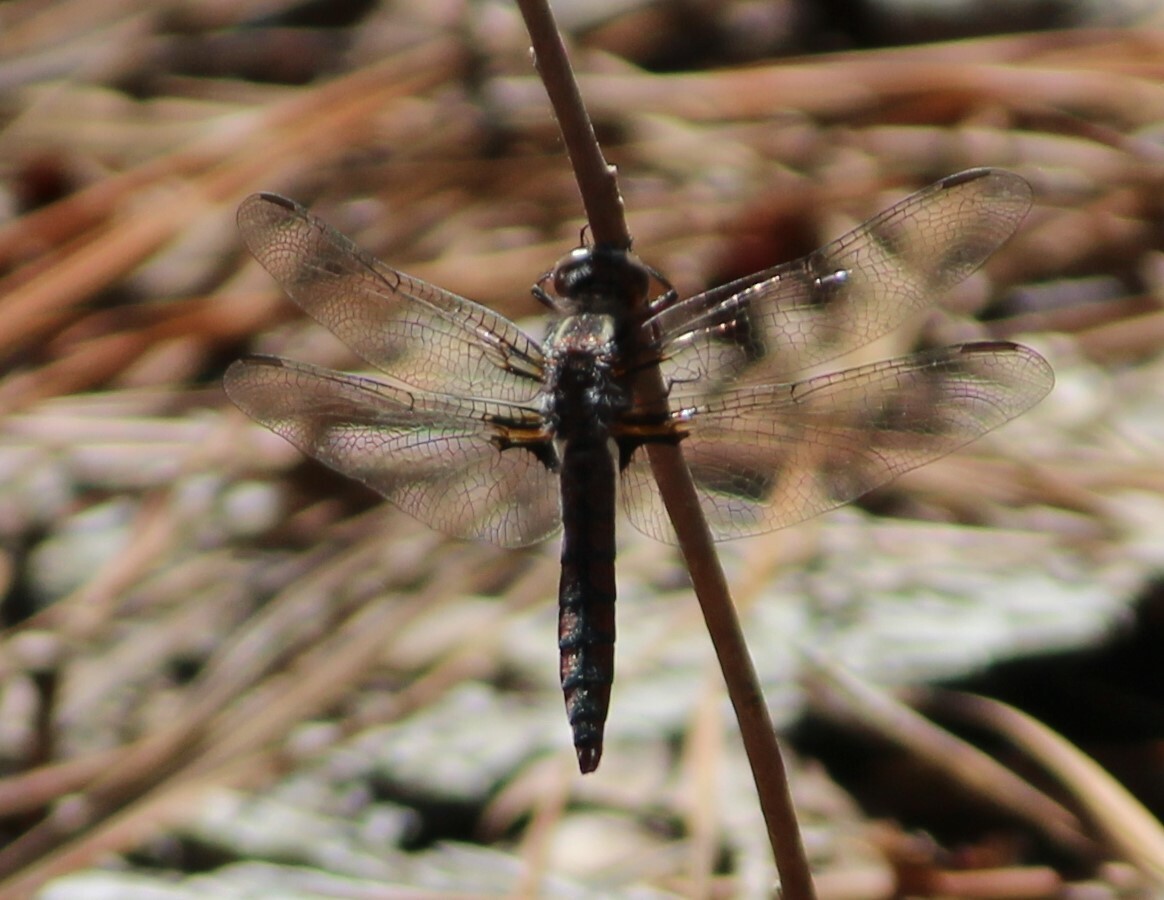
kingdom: Animalia
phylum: Arthropoda
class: Insecta
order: Odonata
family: Libellulidae
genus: Ladona
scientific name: Ladona deplanata
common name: Blue corporal
